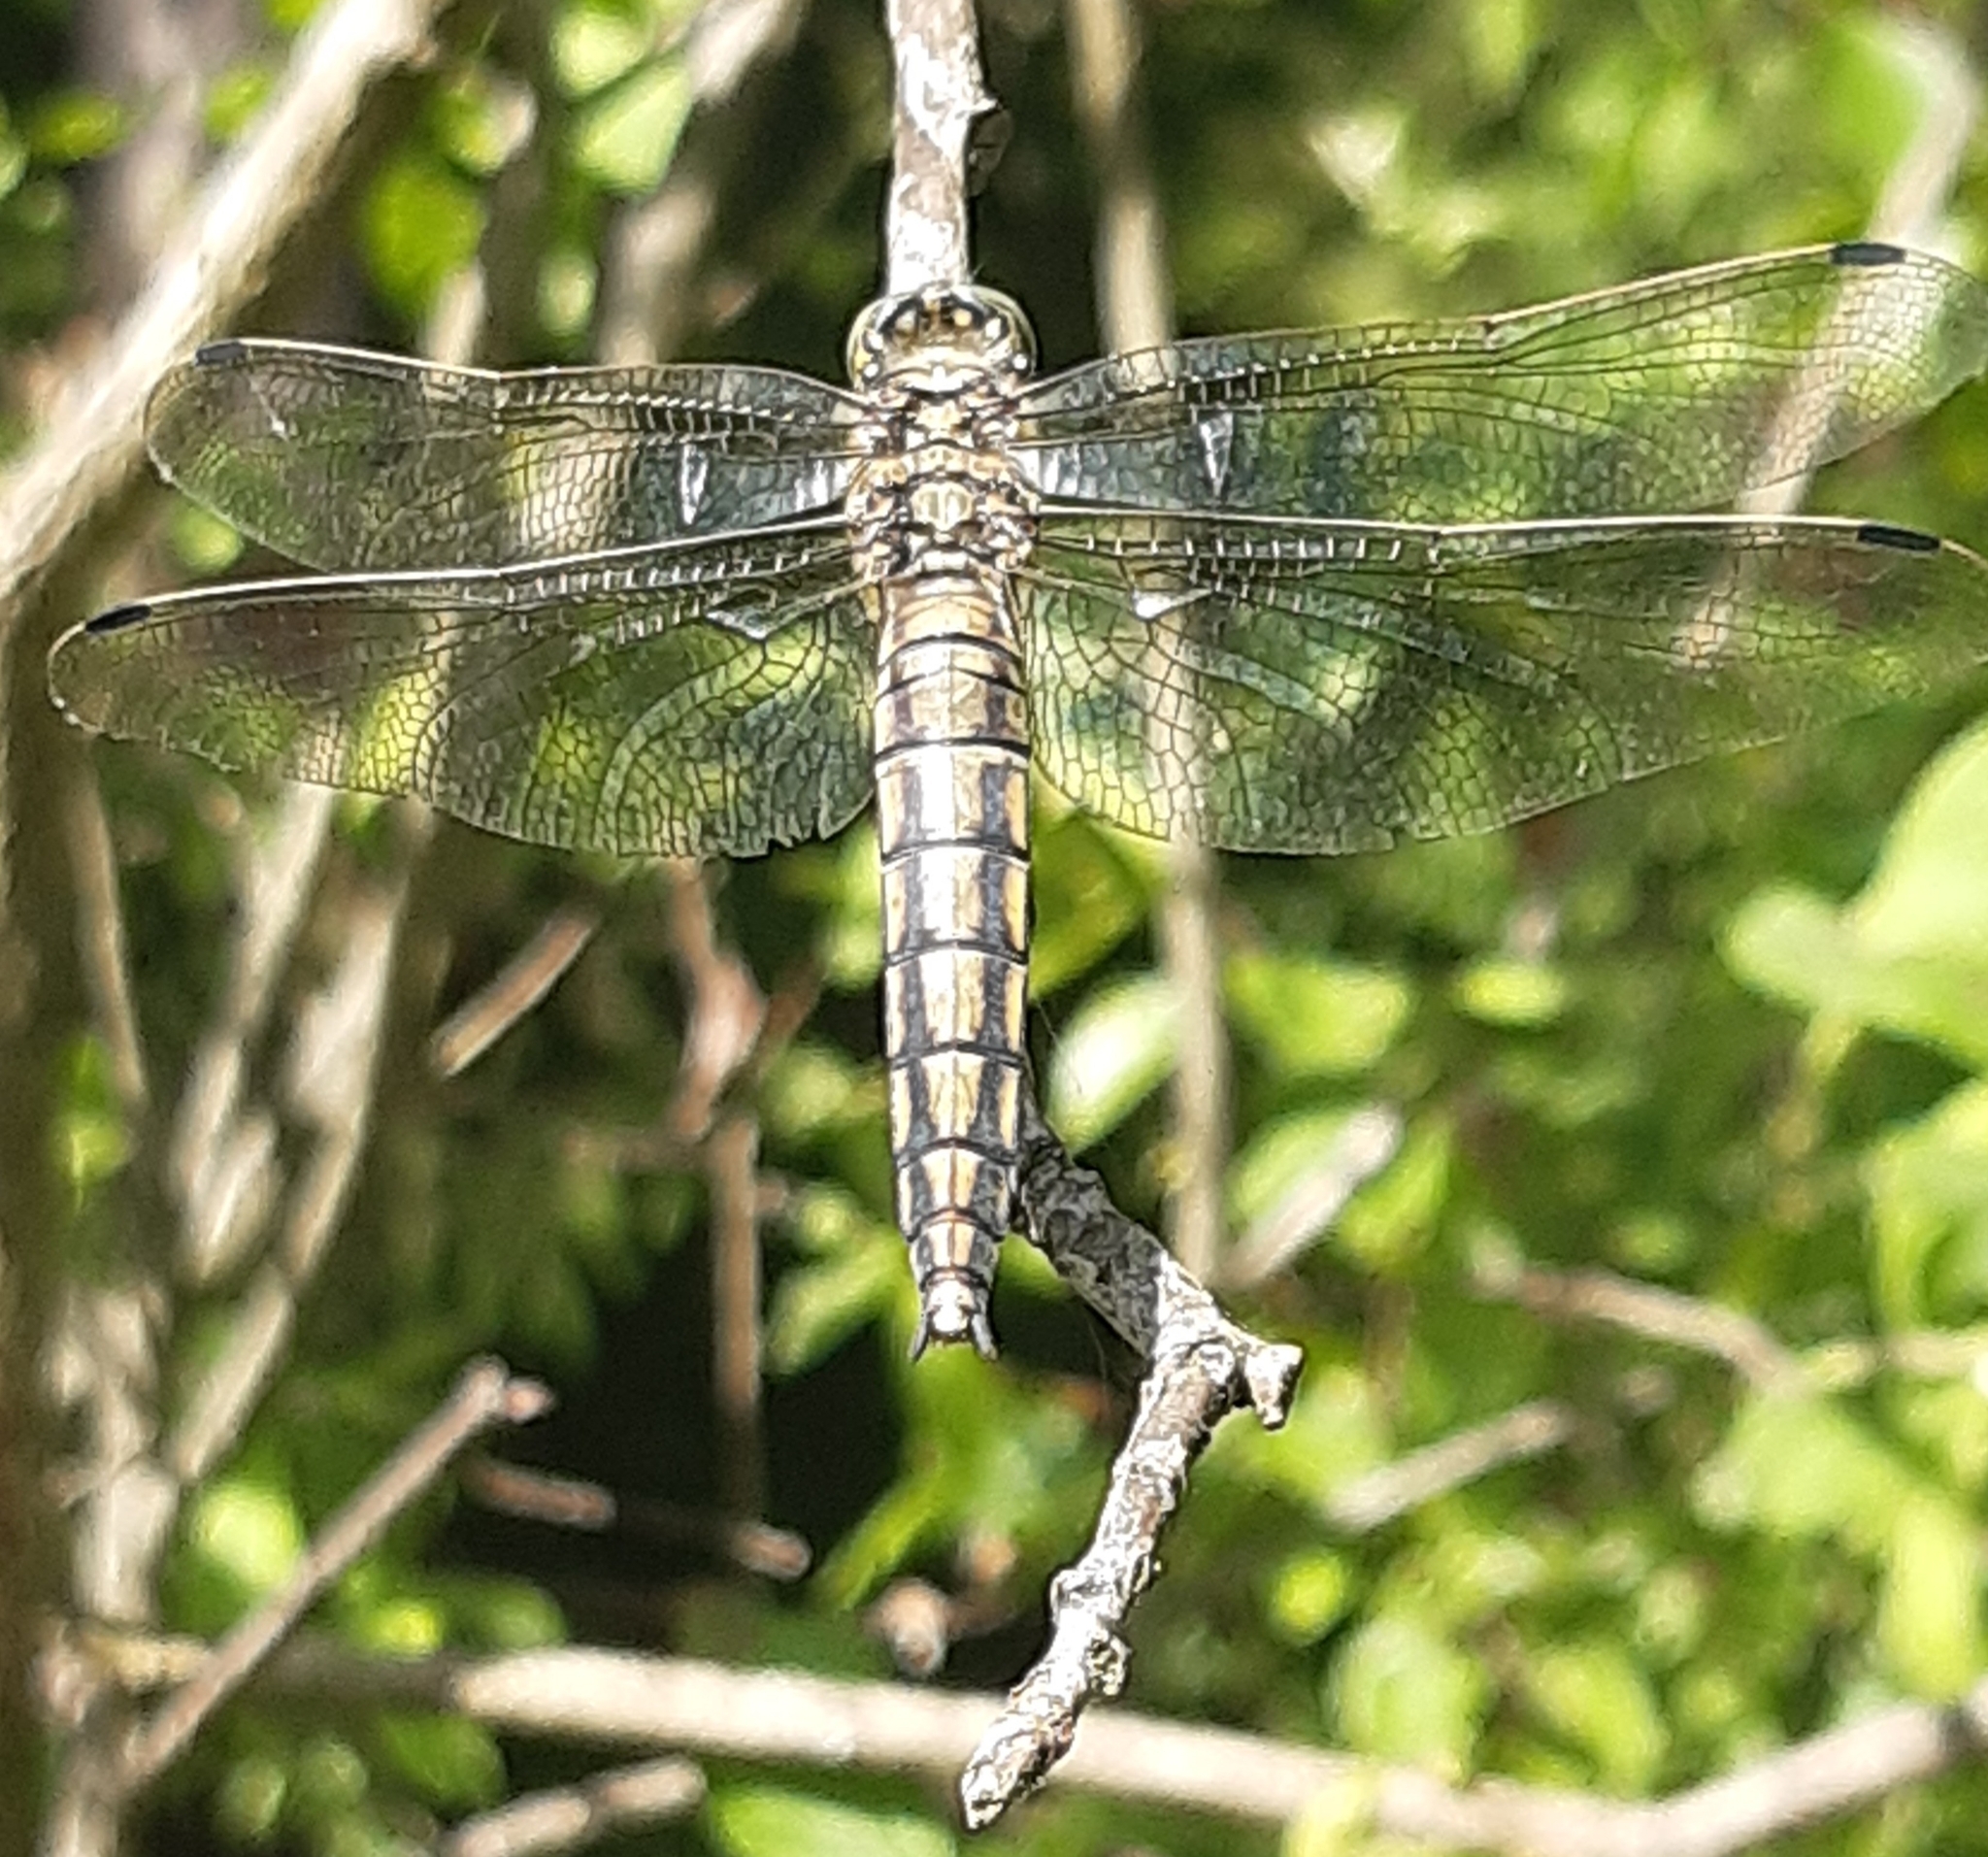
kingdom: Animalia
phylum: Arthropoda
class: Insecta
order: Odonata
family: Libellulidae
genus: Orthetrum
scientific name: Orthetrum cancellatum
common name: Black-tailed skimmer
